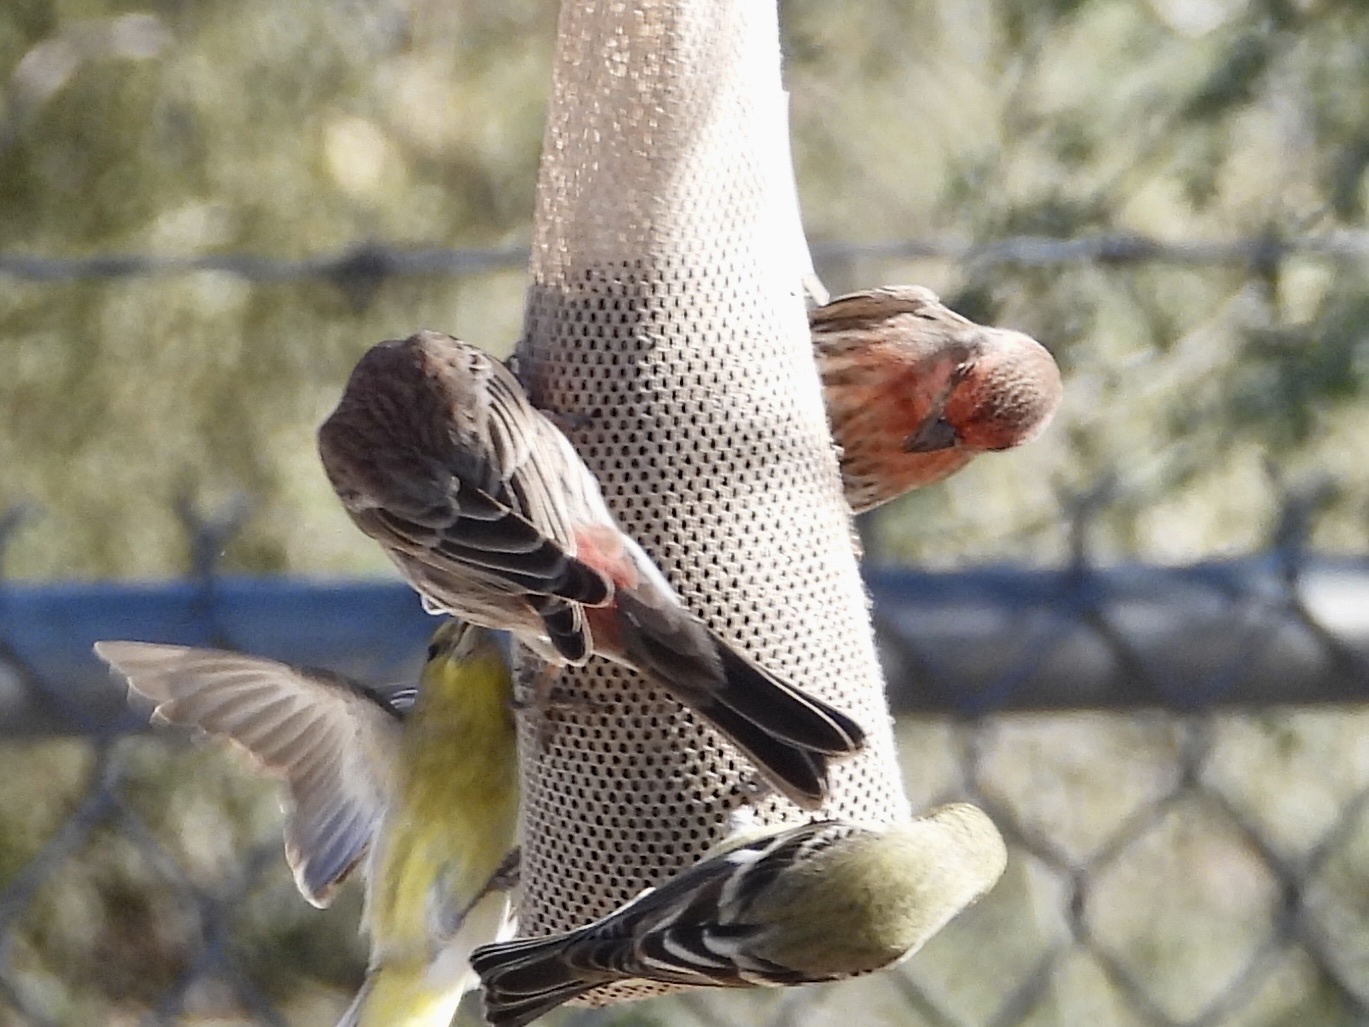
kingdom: Animalia
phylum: Chordata
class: Aves
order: Passeriformes
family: Fringillidae
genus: Haemorhous
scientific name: Haemorhous mexicanus
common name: House finch
